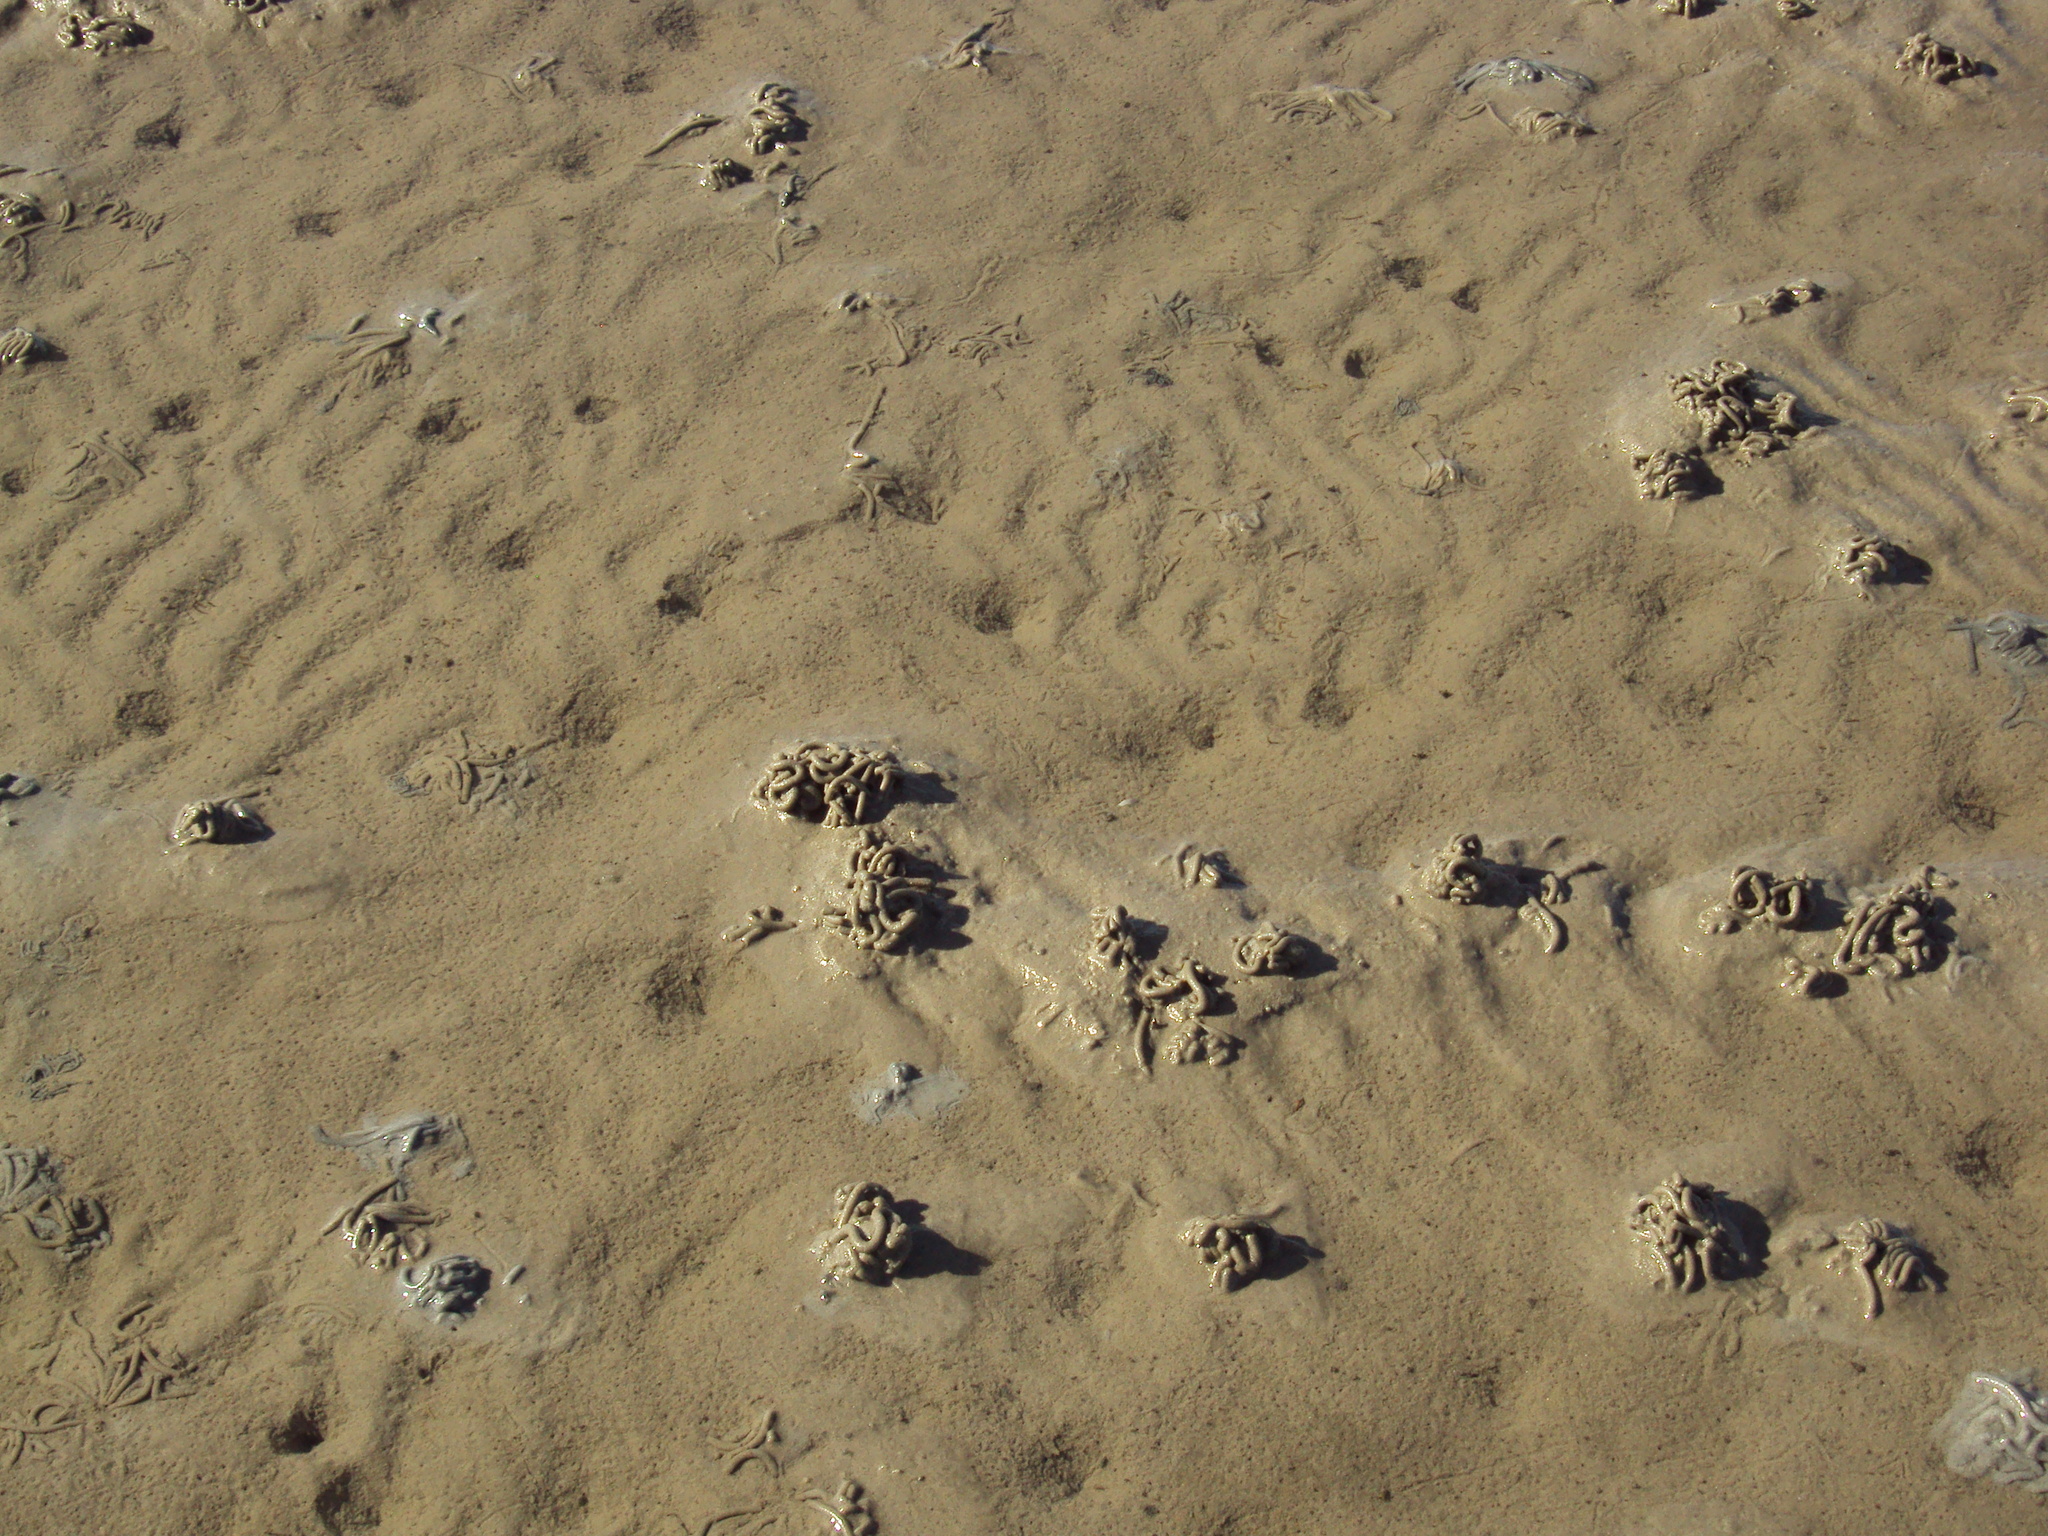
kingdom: Animalia
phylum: Annelida
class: Polychaeta
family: Arenicolidae
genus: Arenicola
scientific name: Arenicola marina
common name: Blow lugworm
